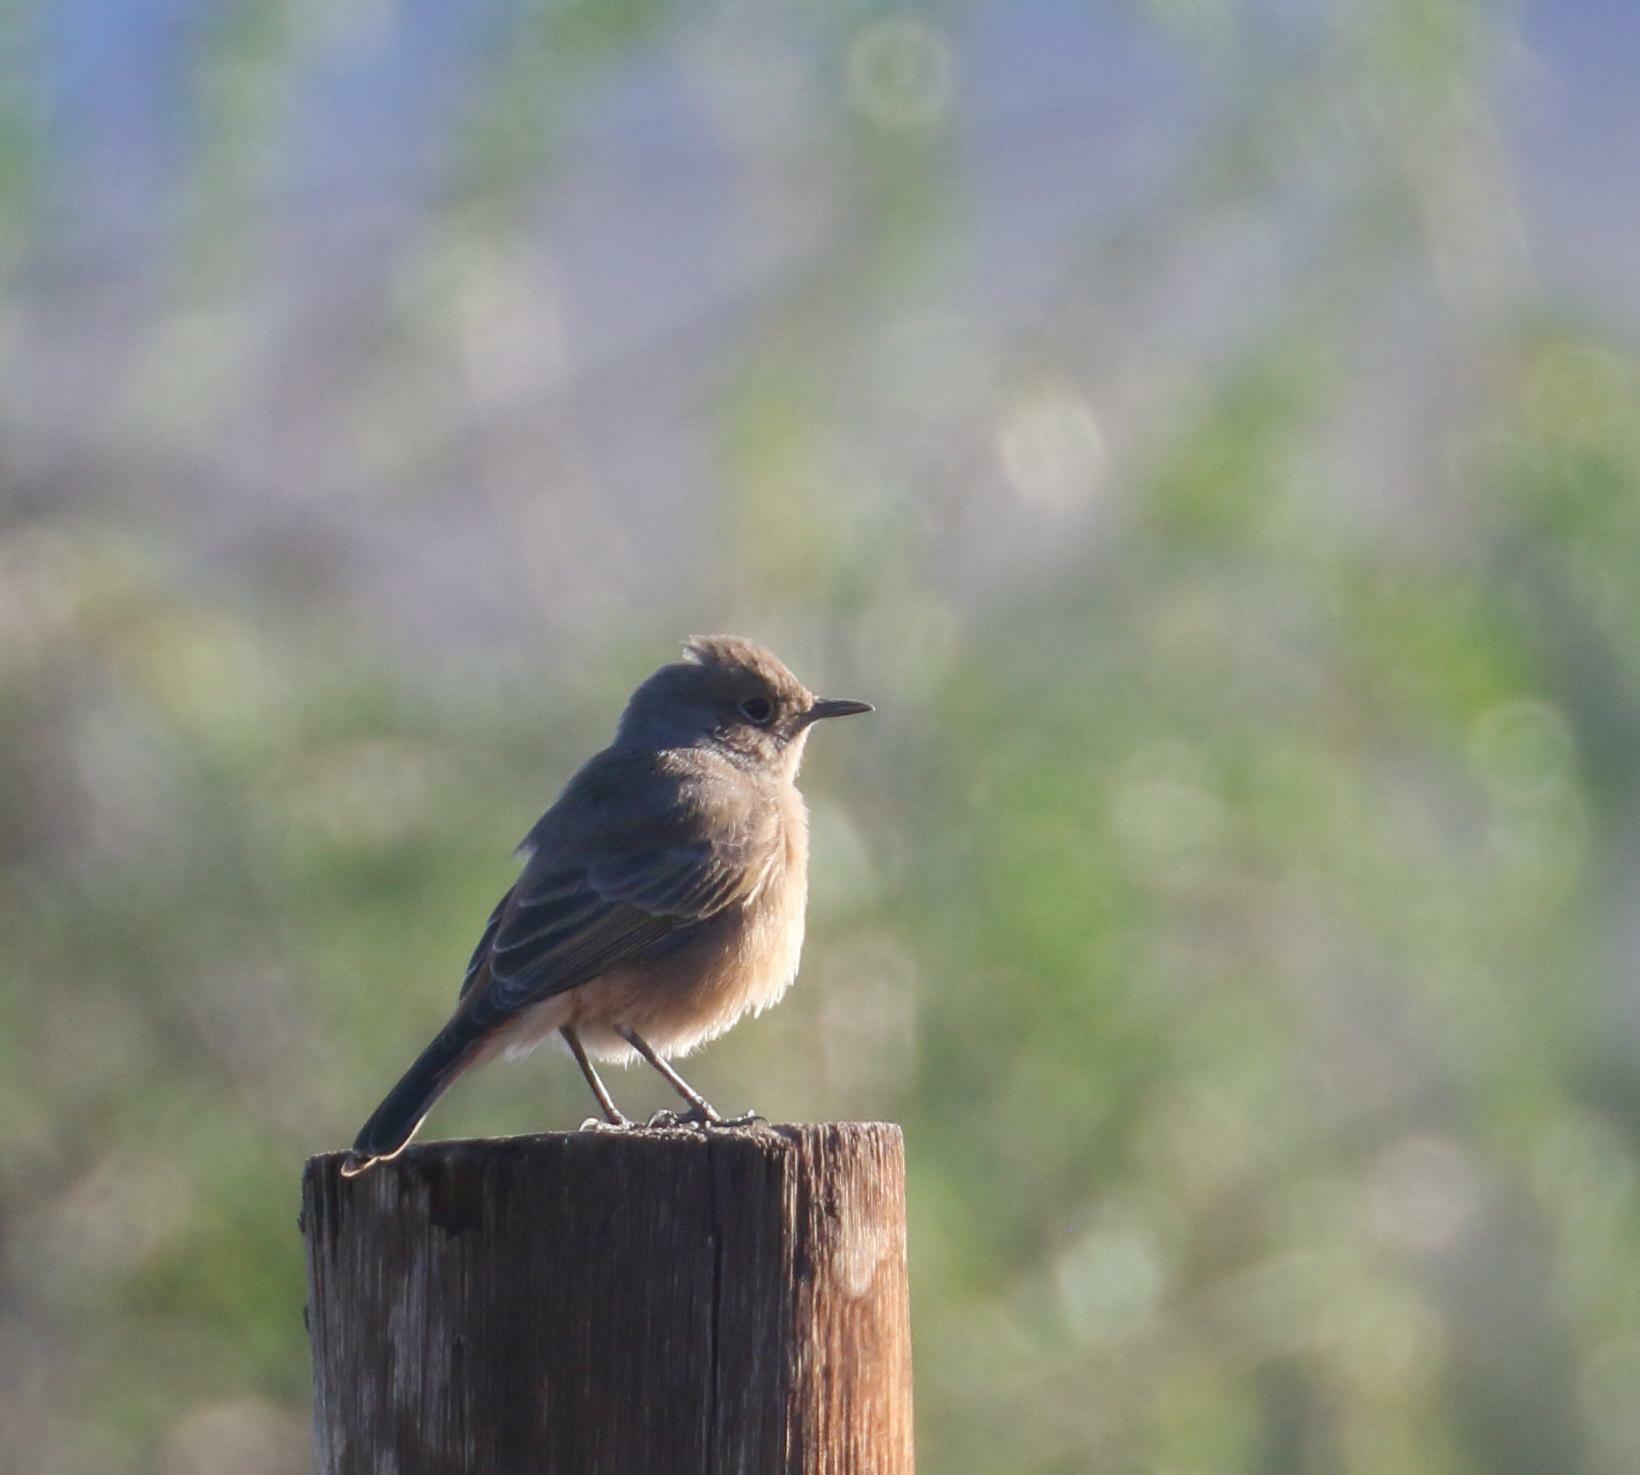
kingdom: Animalia
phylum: Chordata
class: Aves
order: Passeriformes
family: Muscicapidae
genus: Oenanthe
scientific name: Oenanthe familiaris
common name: Familiar chat
